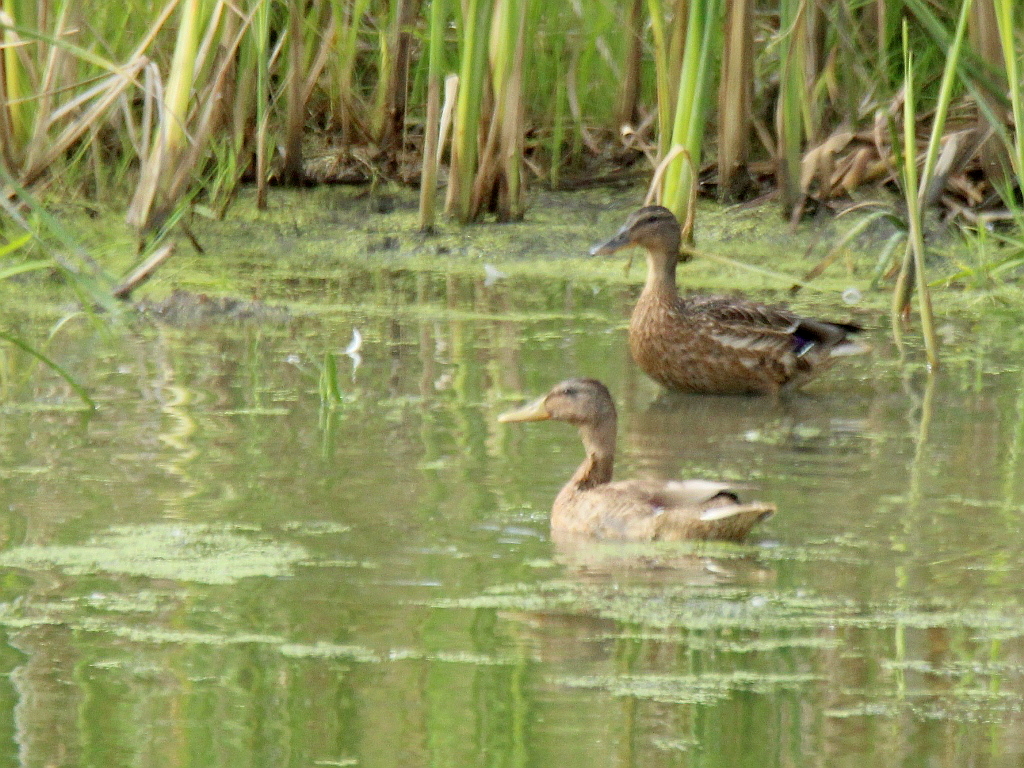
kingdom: Animalia
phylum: Chordata
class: Aves
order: Anseriformes
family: Anatidae
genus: Anas
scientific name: Anas platyrhynchos
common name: Mallard
